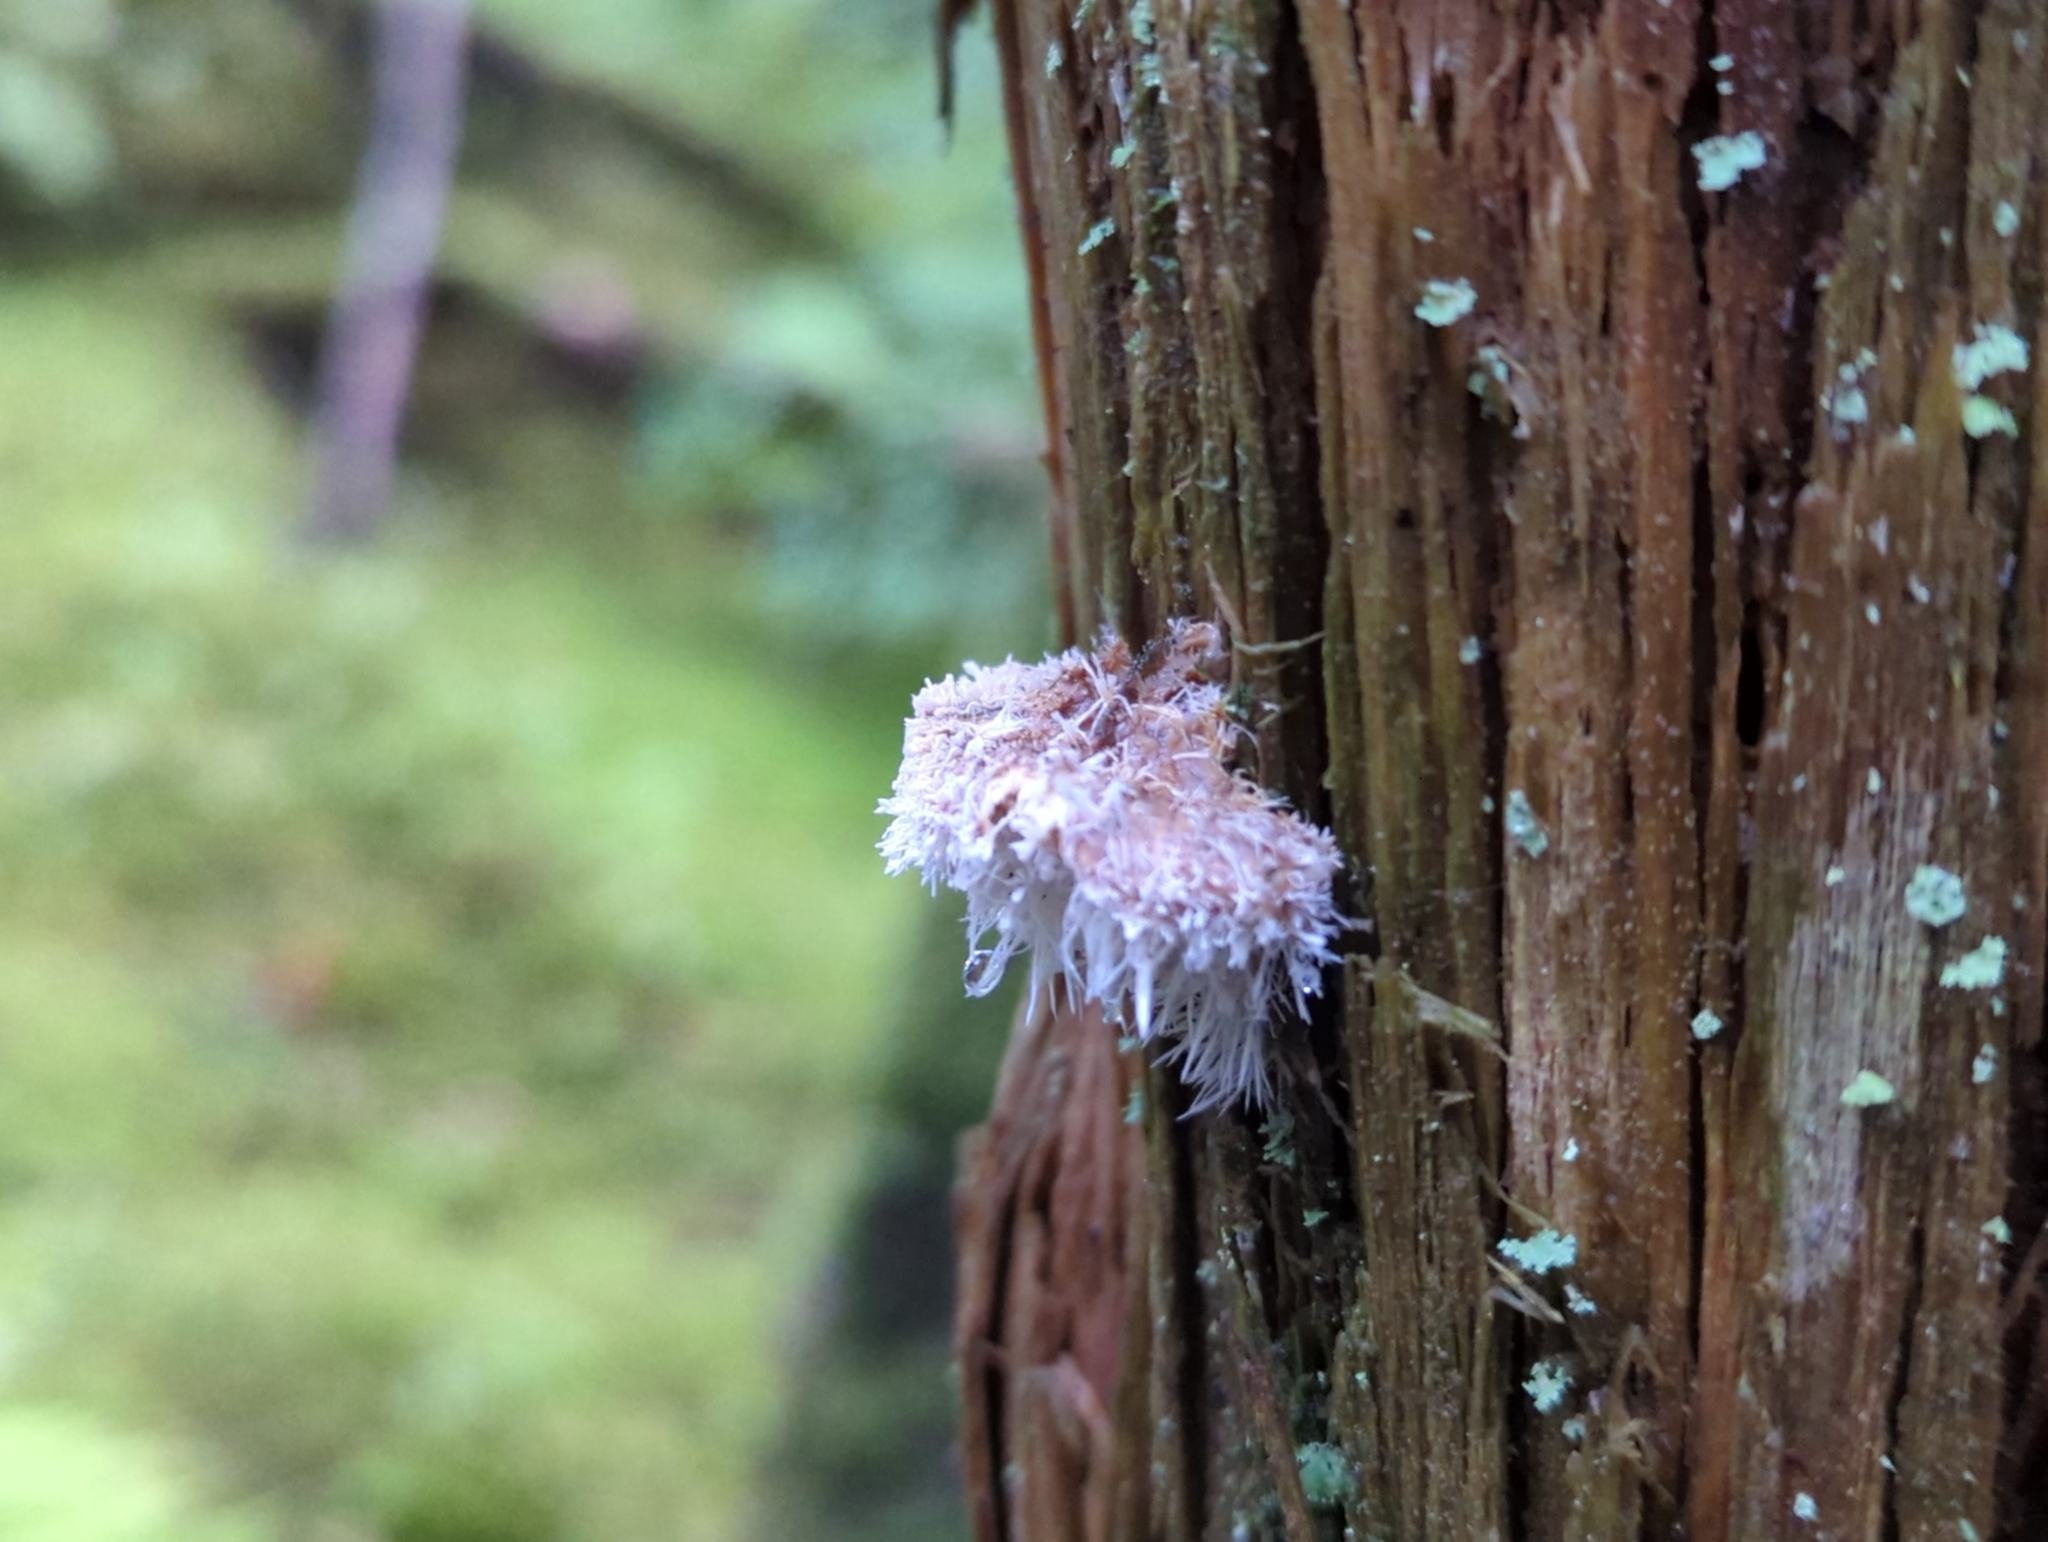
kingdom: Fungi
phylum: Ascomycota
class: Sordariomycetes
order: Hypocreales
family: Tilachlidiaceae
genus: Tilachlidium
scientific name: Tilachlidium brachiatum
